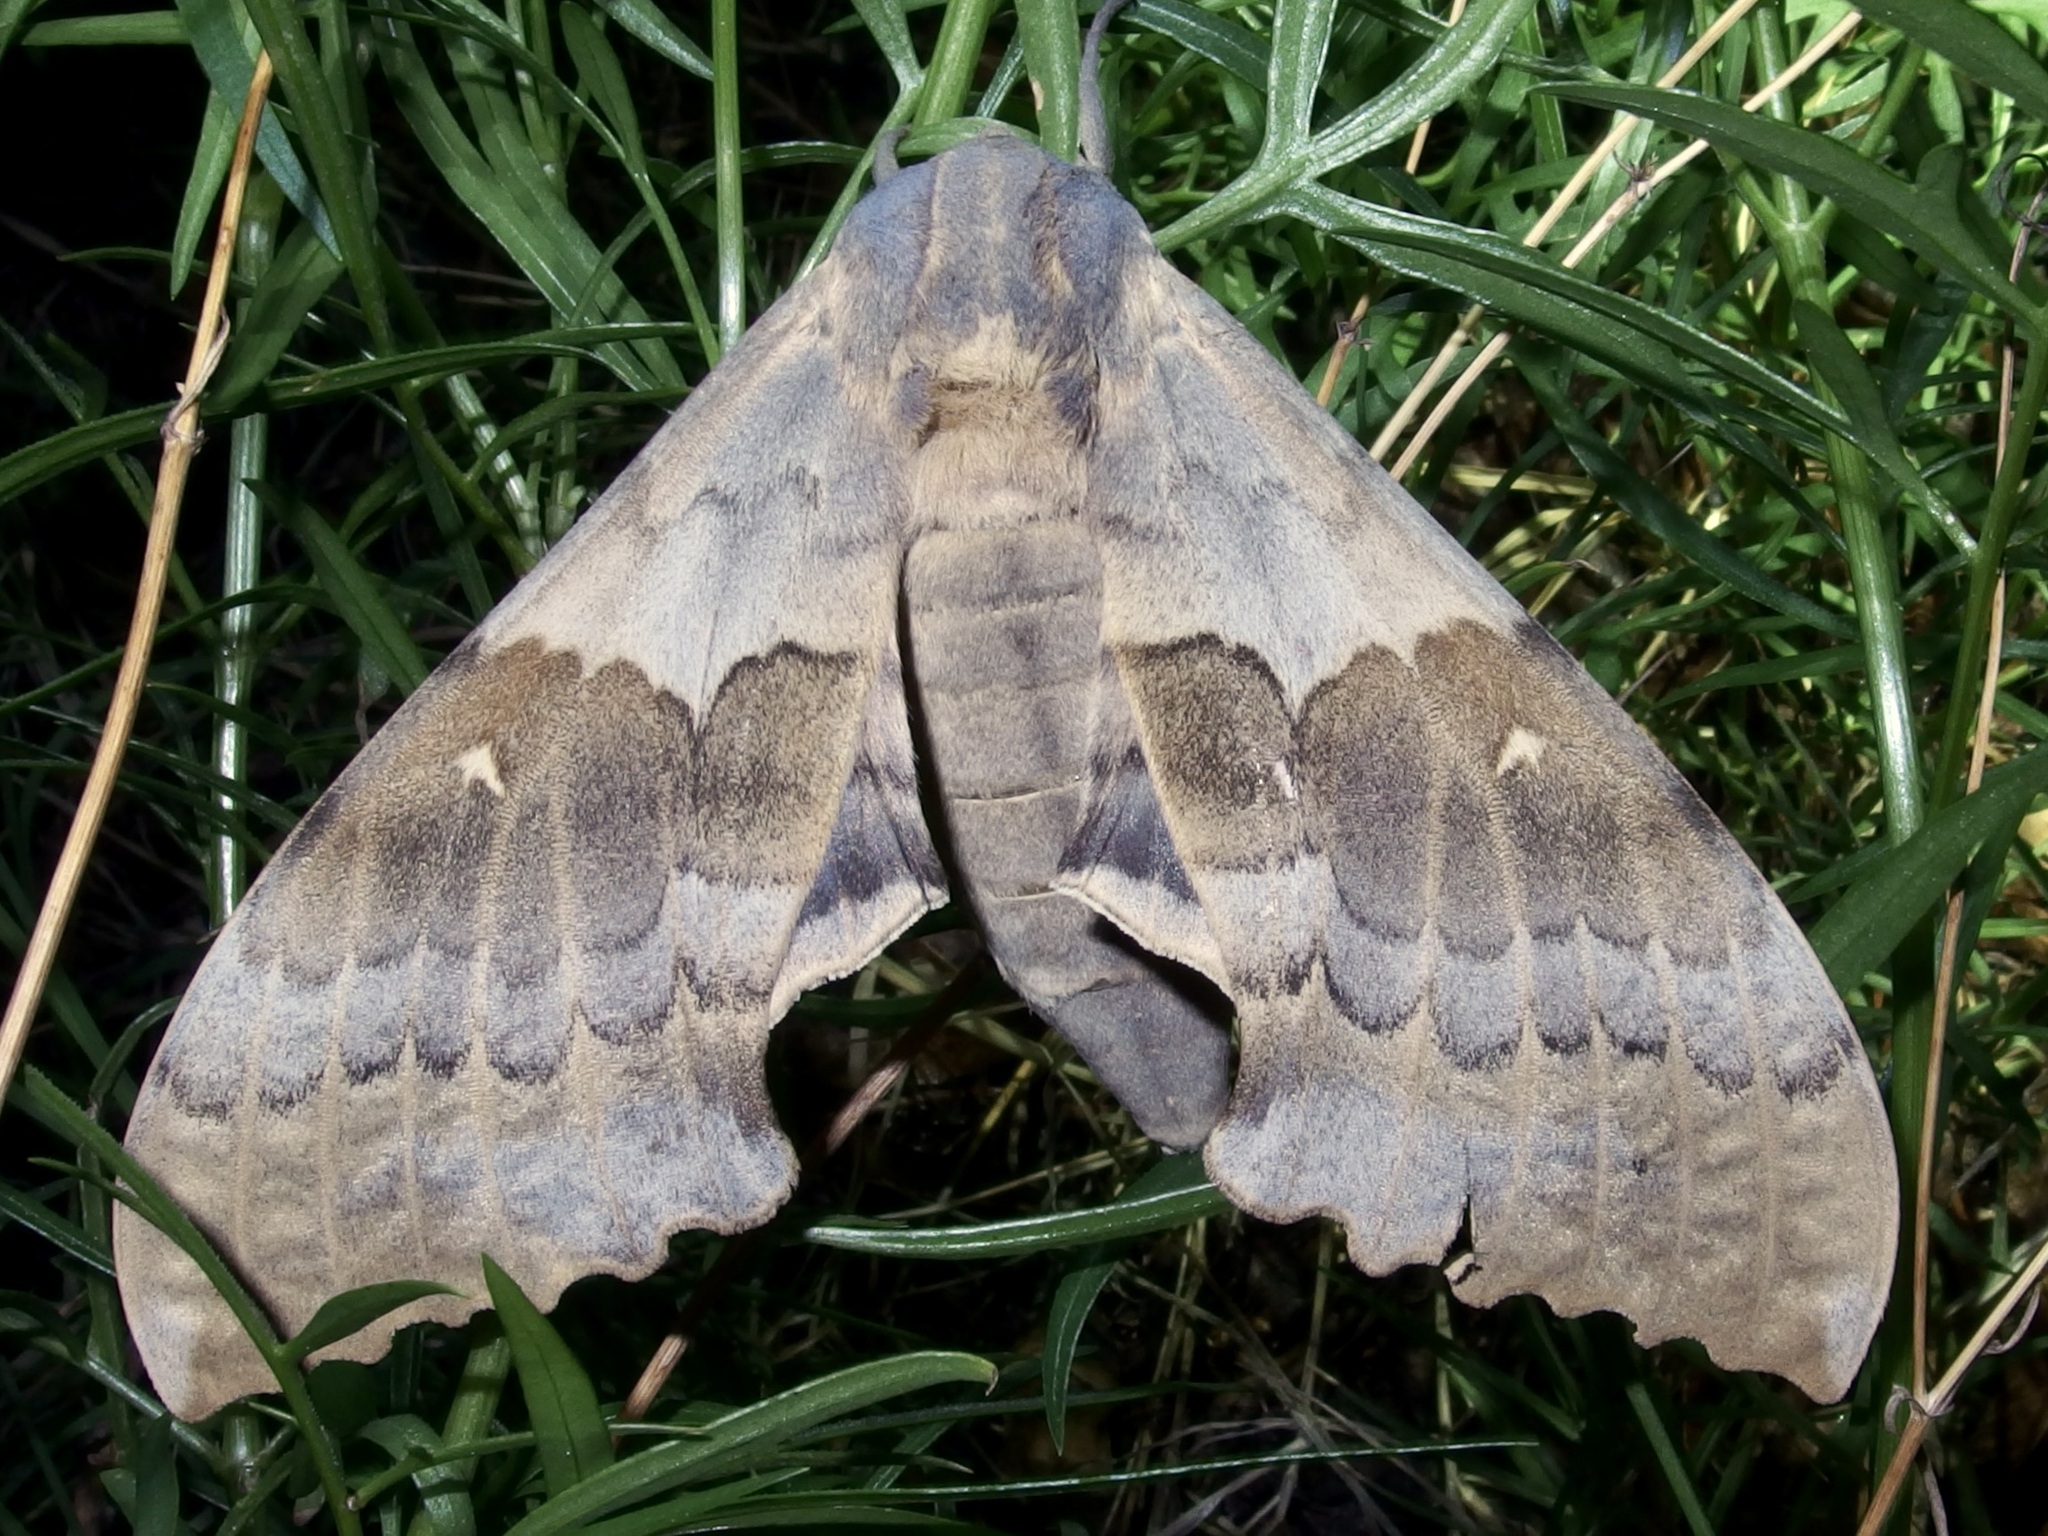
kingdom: Animalia
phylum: Arthropoda
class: Insecta
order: Lepidoptera
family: Sphingidae
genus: Pachysphinx
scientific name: Pachysphinx occidentalis
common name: Western poplar sphinx
